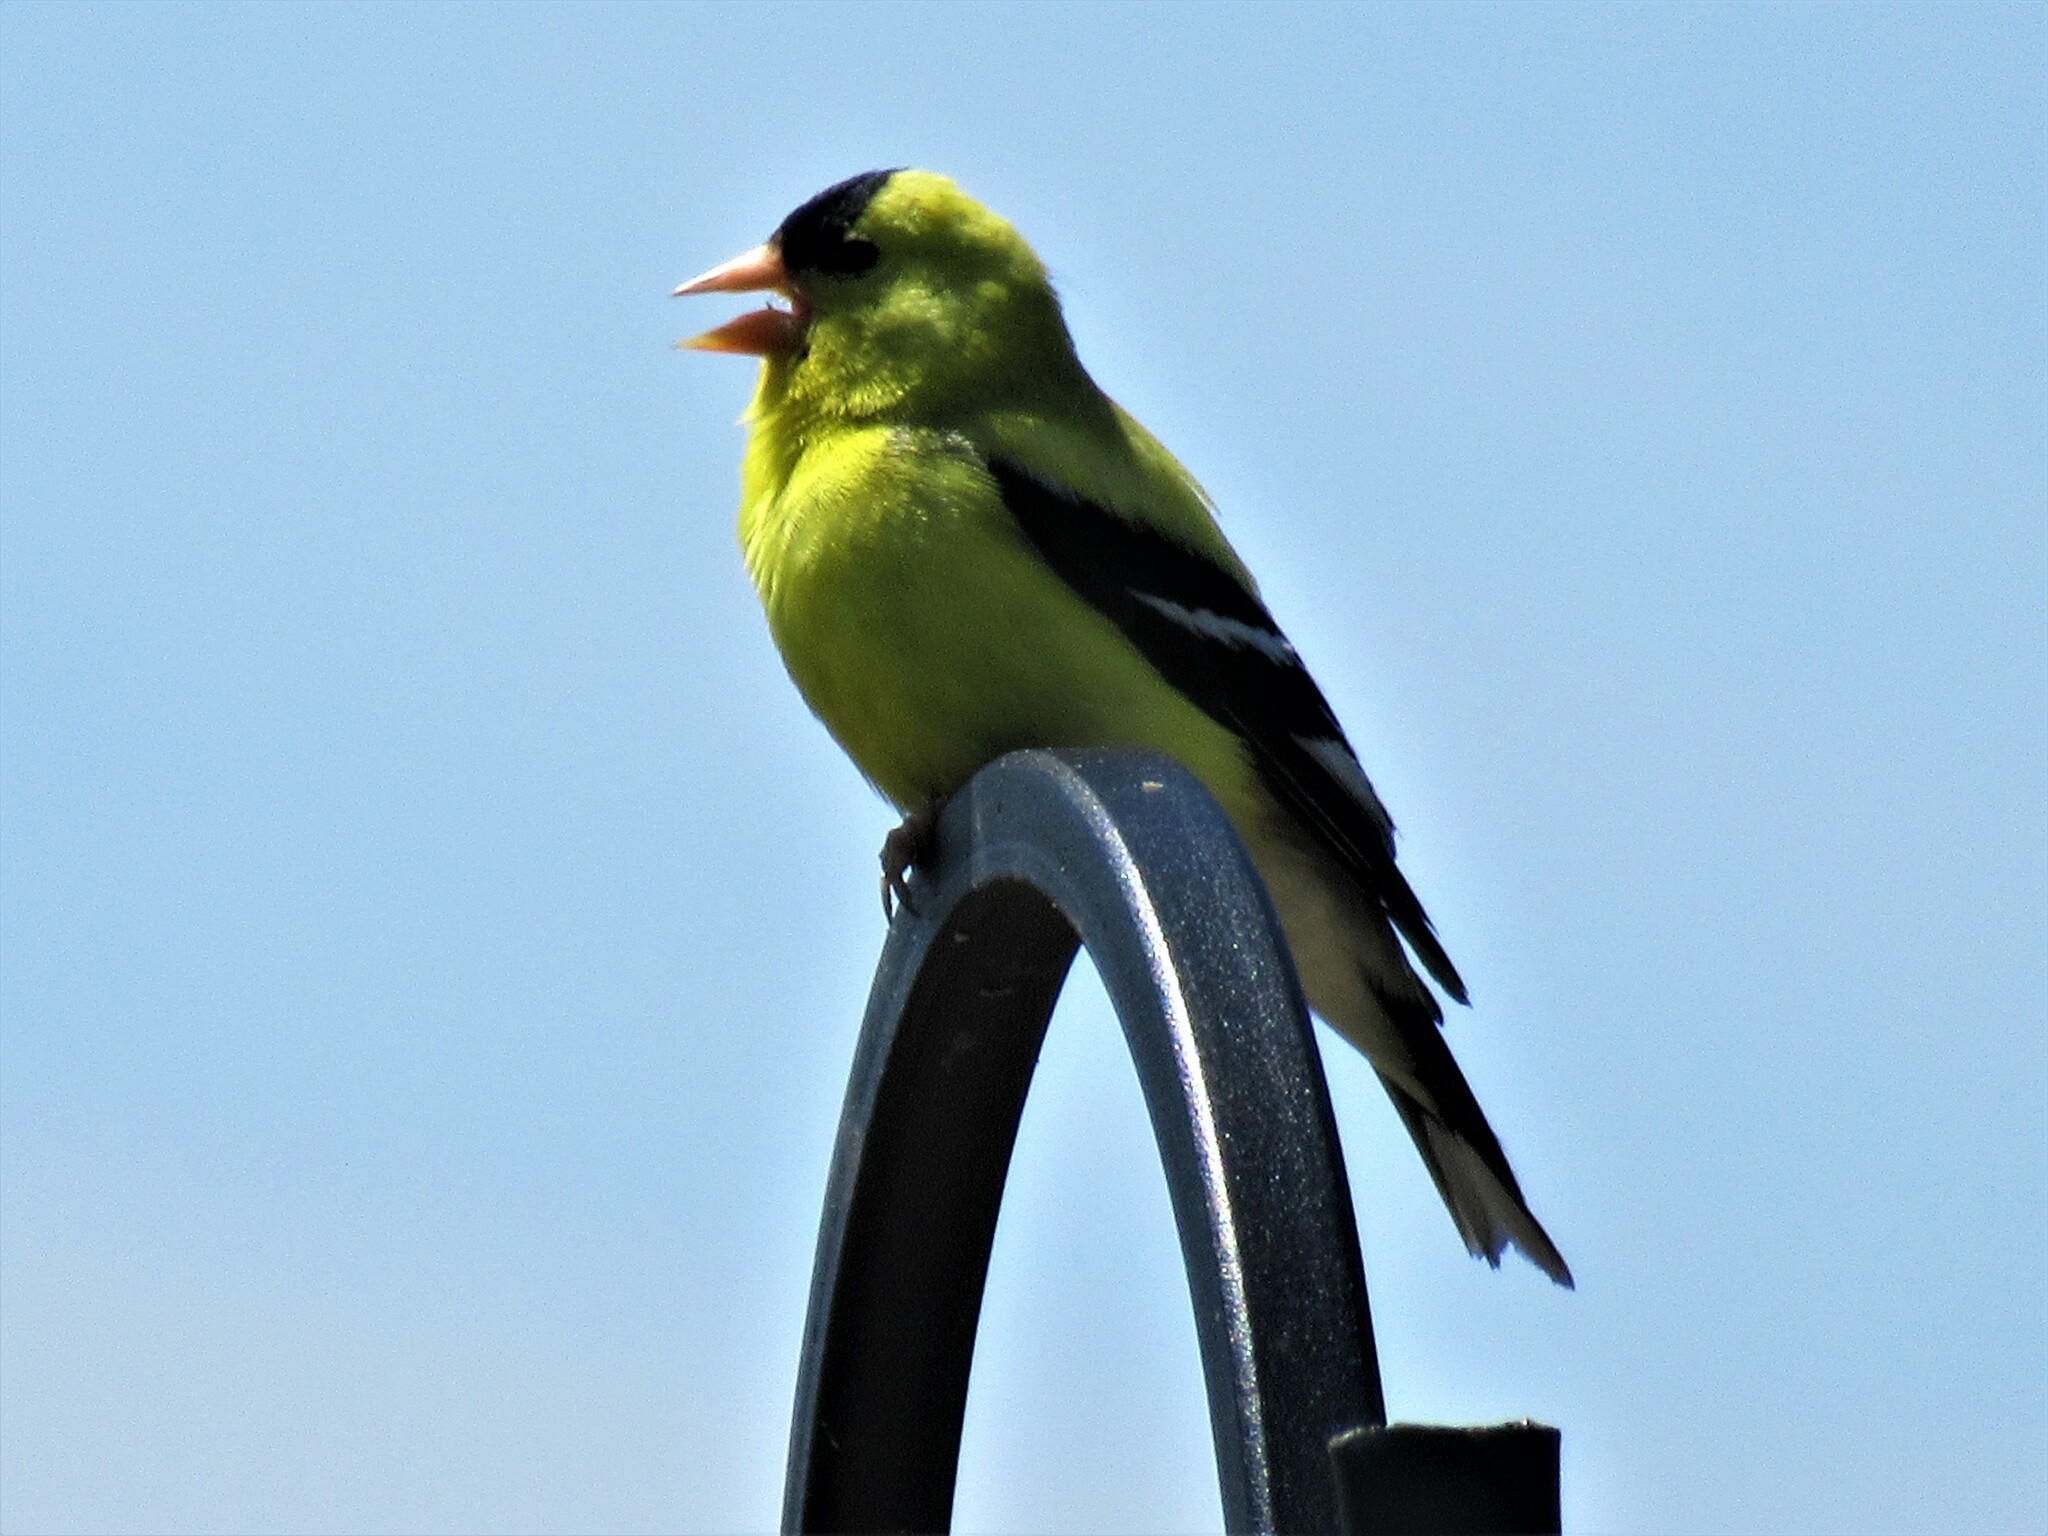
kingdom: Animalia
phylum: Chordata
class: Aves
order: Passeriformes
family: Fringillidae
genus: Spinus
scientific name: Spinus tristis
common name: American goldfinch
